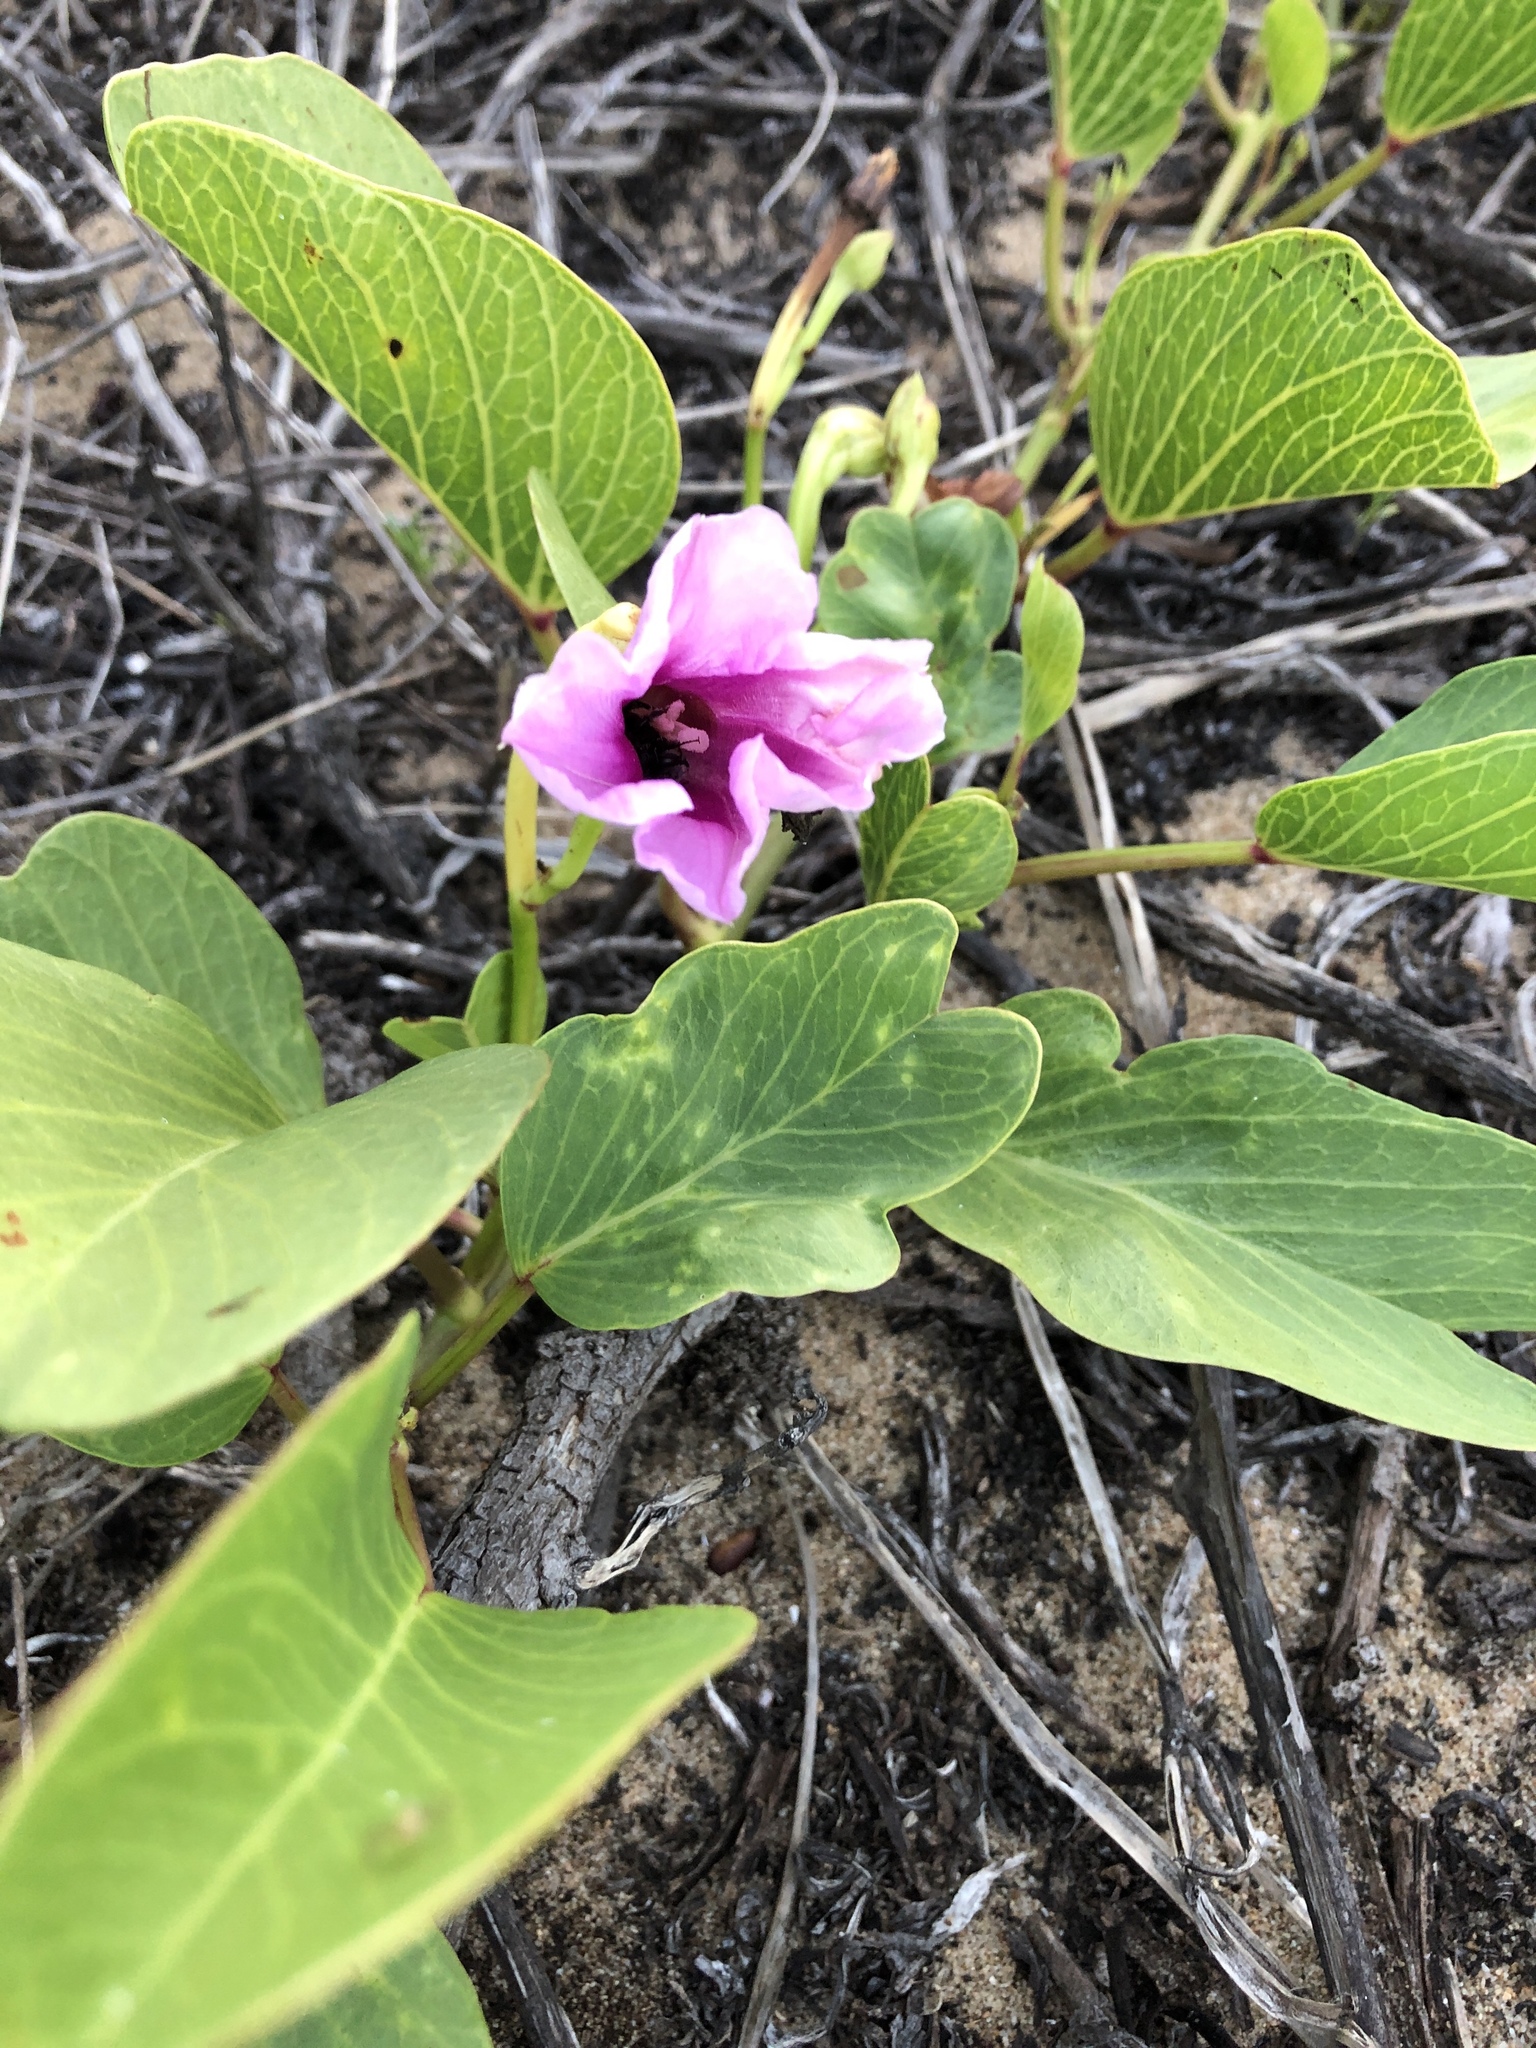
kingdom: Plantae
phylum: Tracheophyta
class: Magnoliopsida
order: Solanales
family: Convolvulaceae
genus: Ipomoea
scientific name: Ipomoea pes-caprae
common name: Beach morning glory
